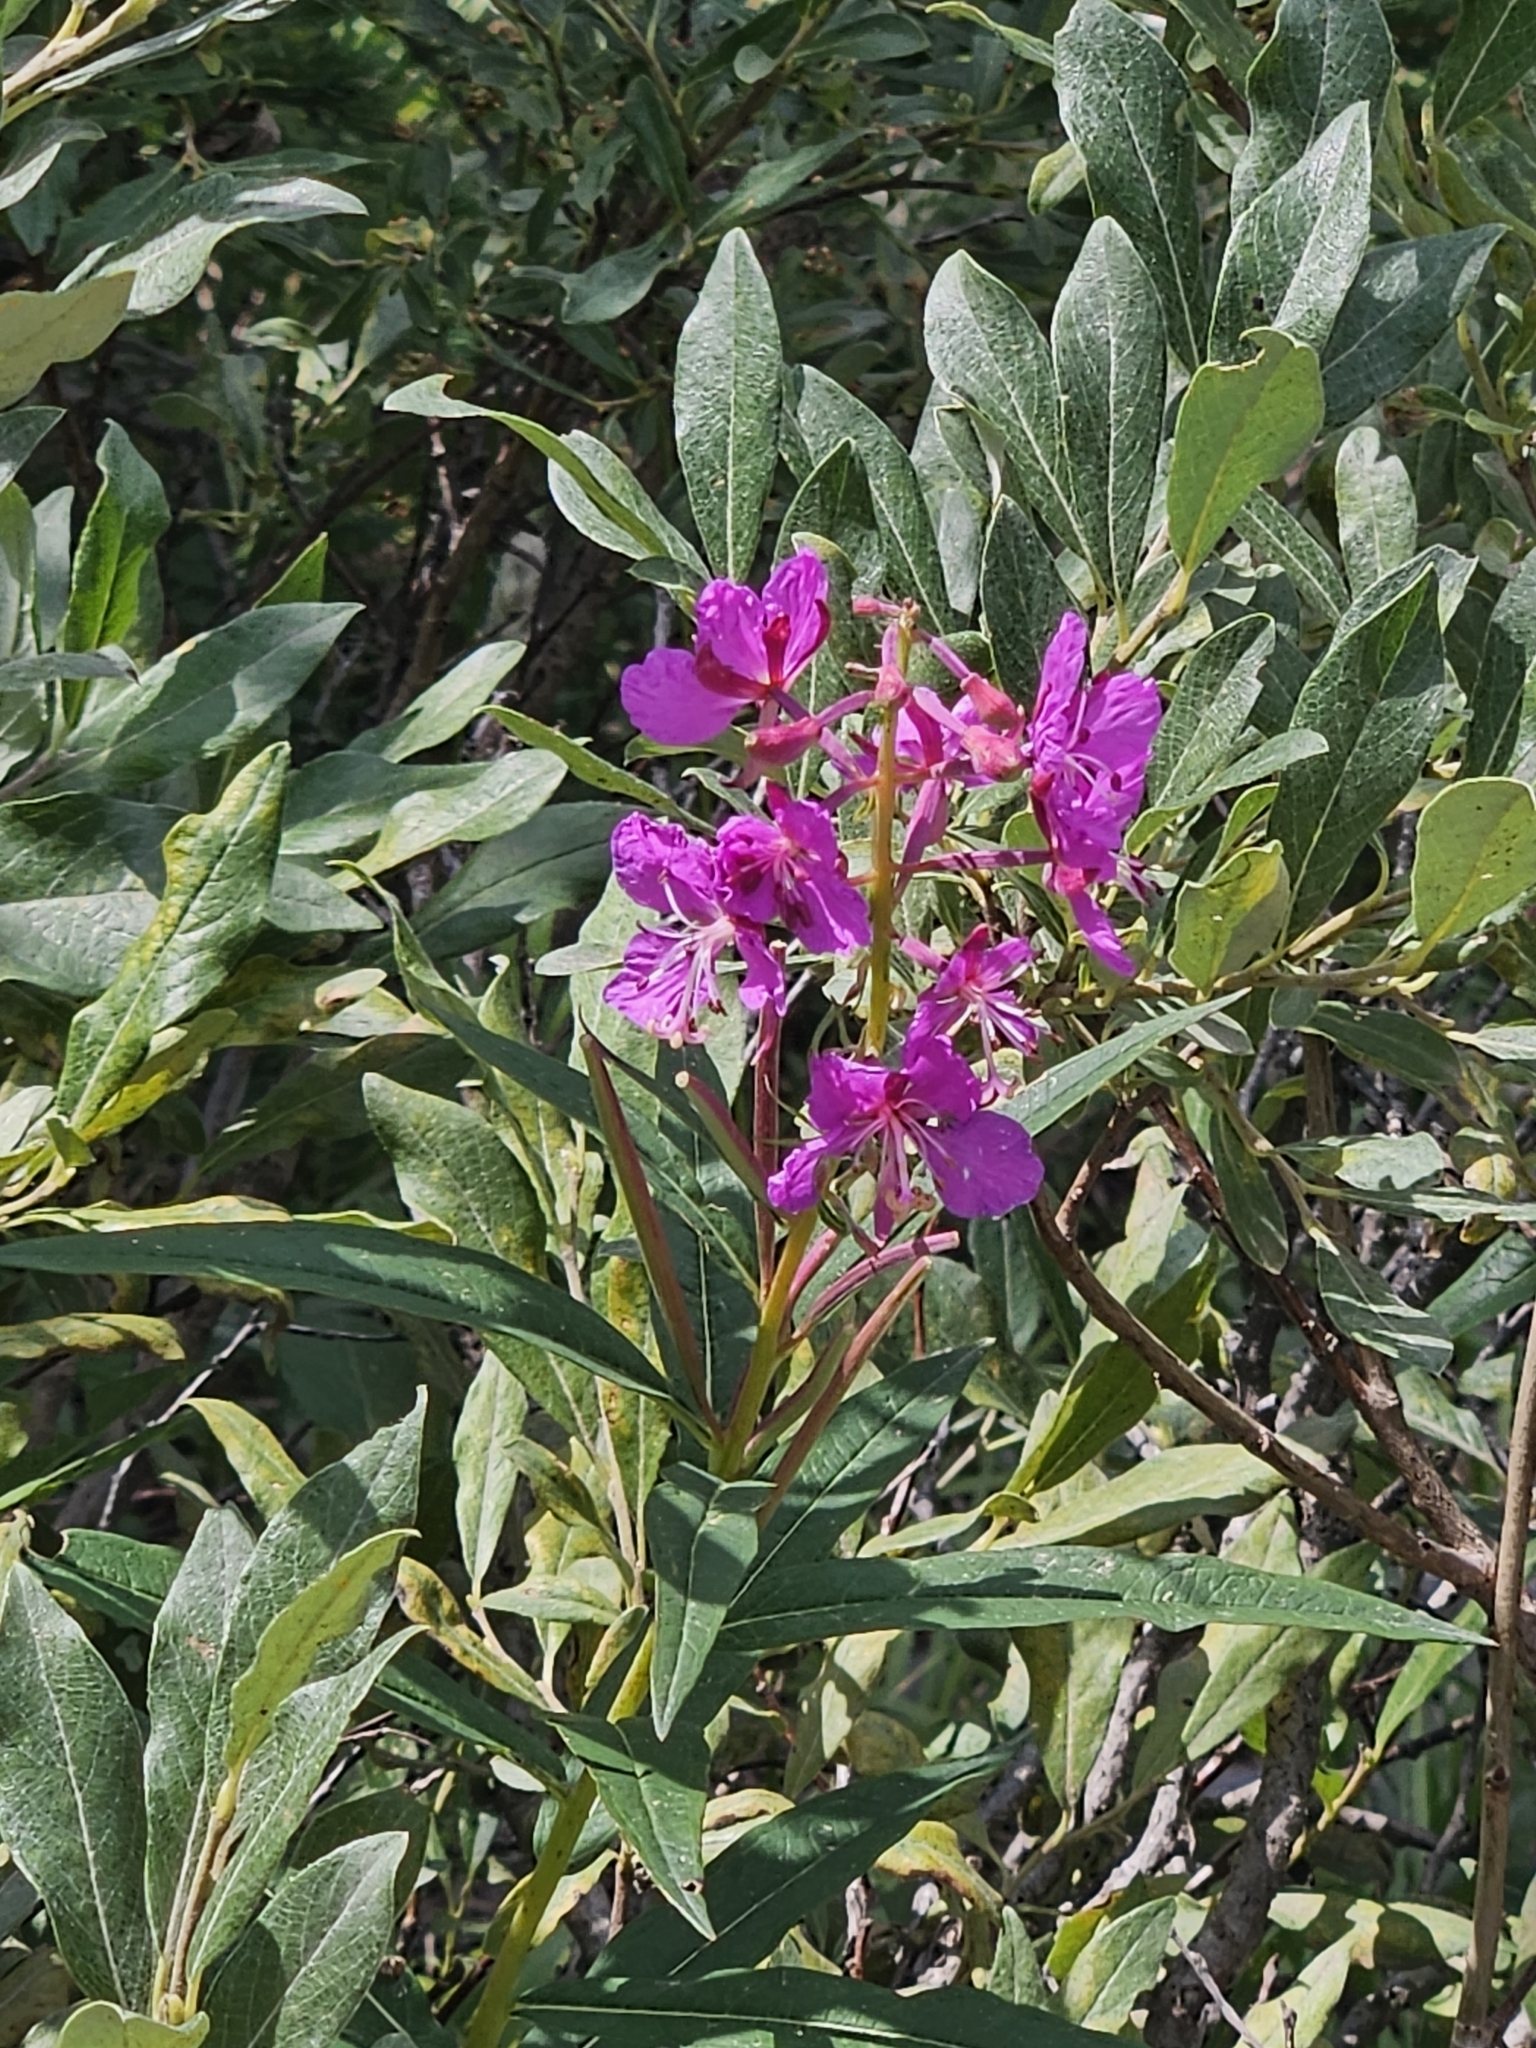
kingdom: Plantae
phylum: Tracheophyta
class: Magnoliopsida
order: Myrtales
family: Onagraceae
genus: Chamaenerion
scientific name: Chamaenerion angustifolium
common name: Fireweed
